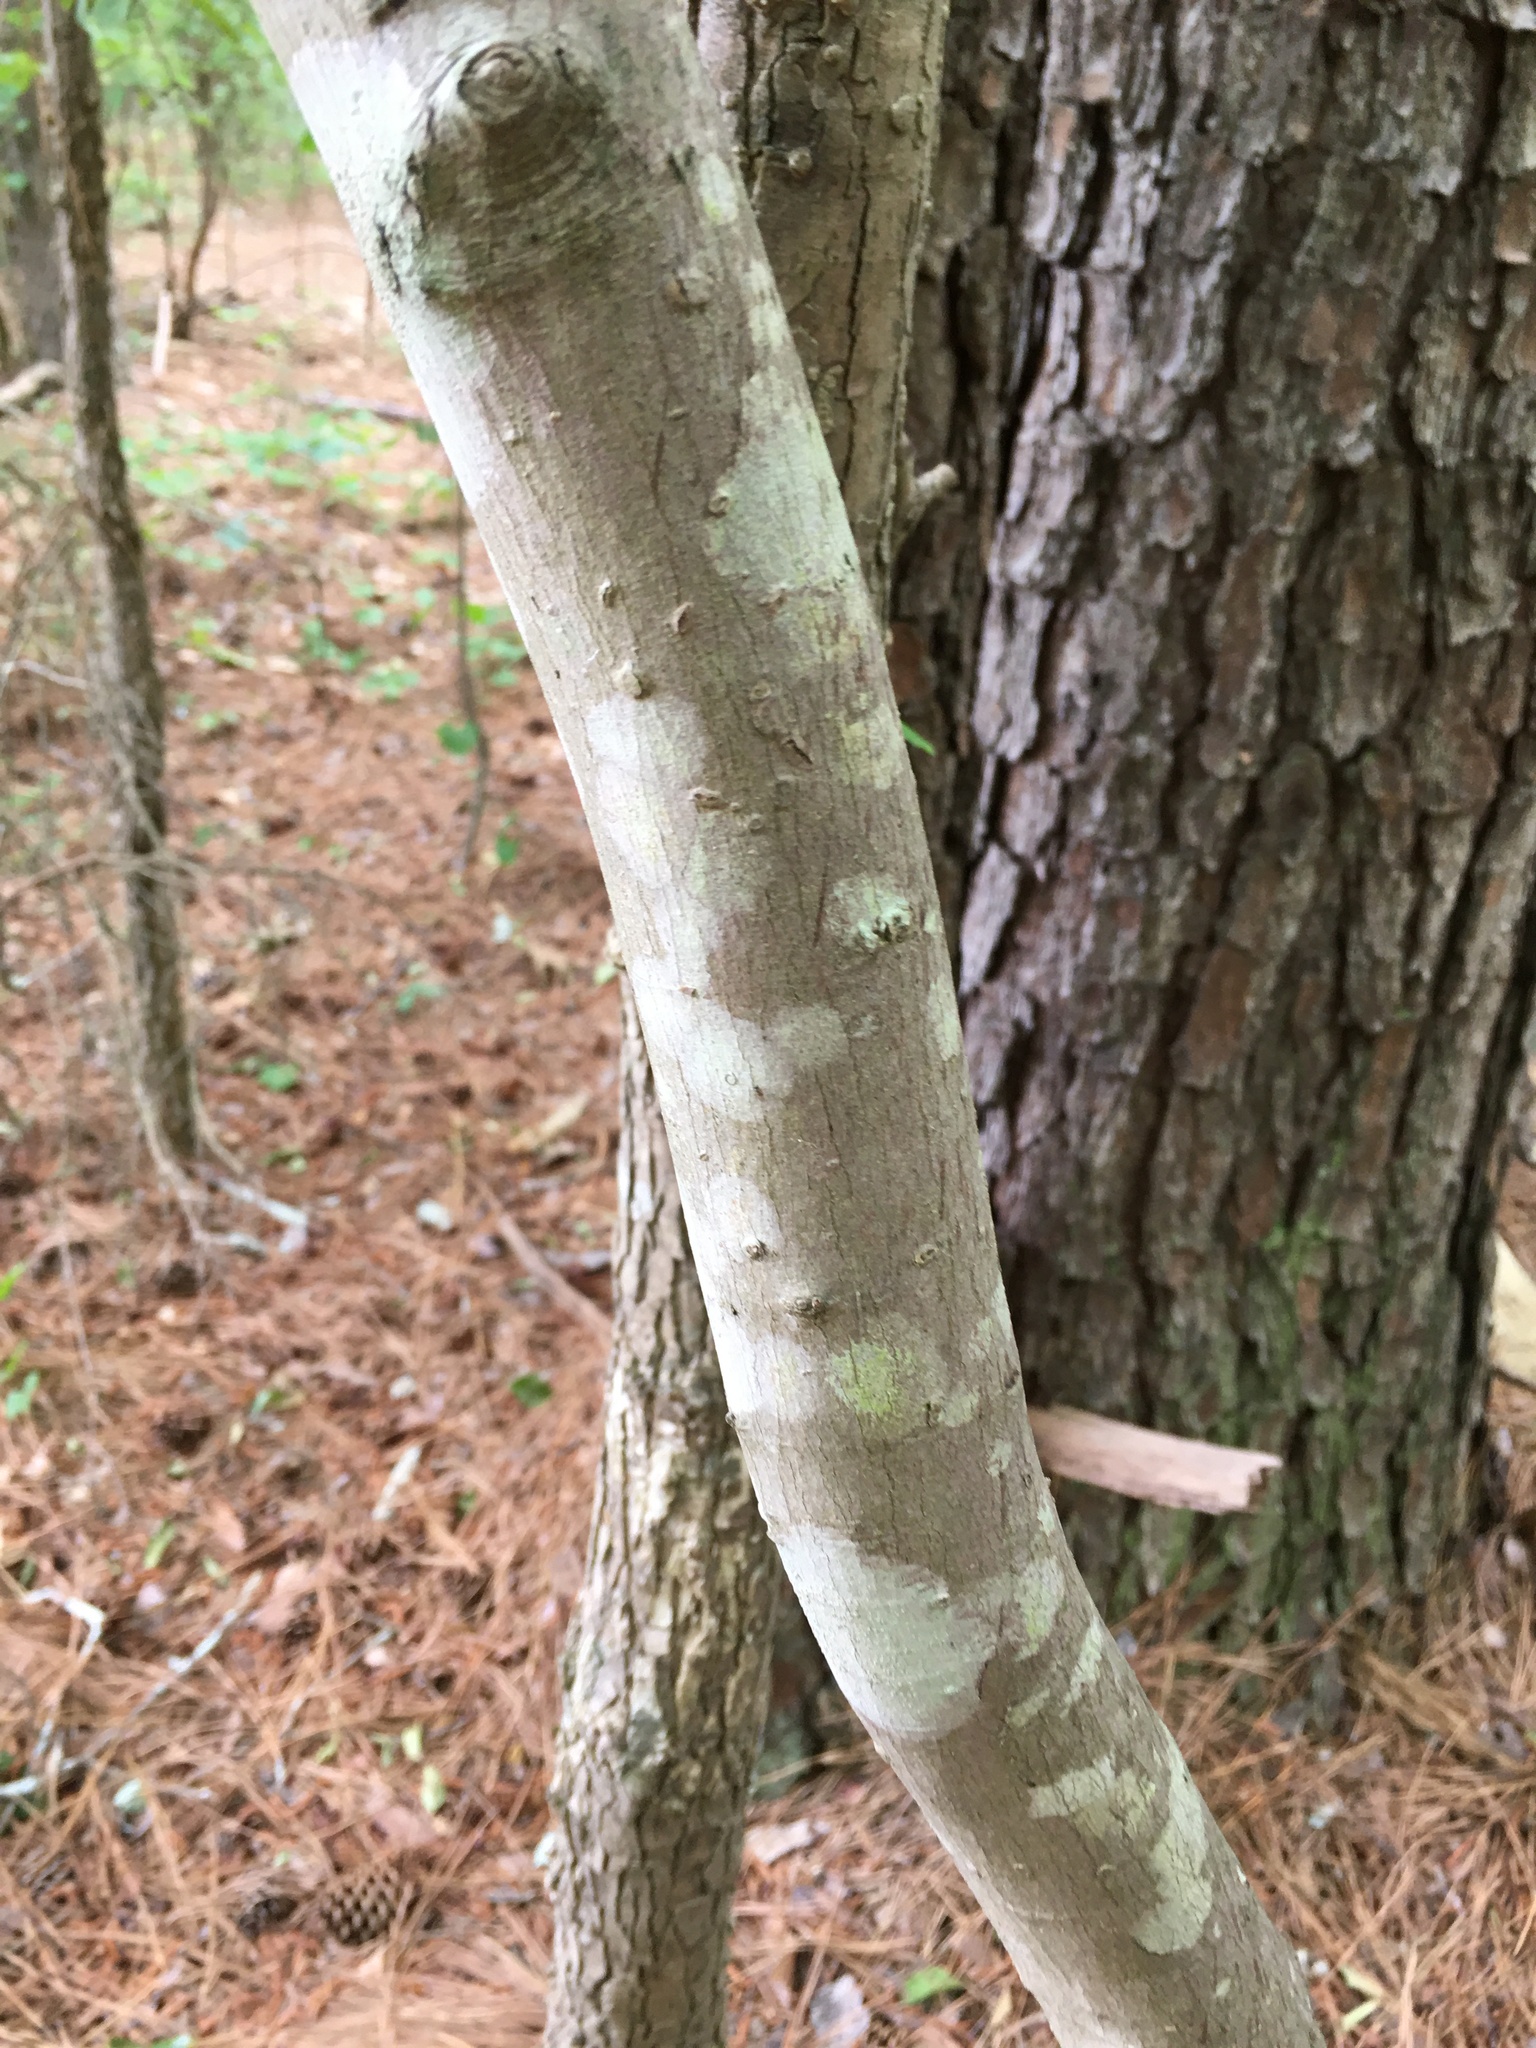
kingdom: Plantae
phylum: Tracheophyta
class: Magnoliopsida
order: Sapindales
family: Sapindaceae
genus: Acer
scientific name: Acer rubrum
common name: Red maple
